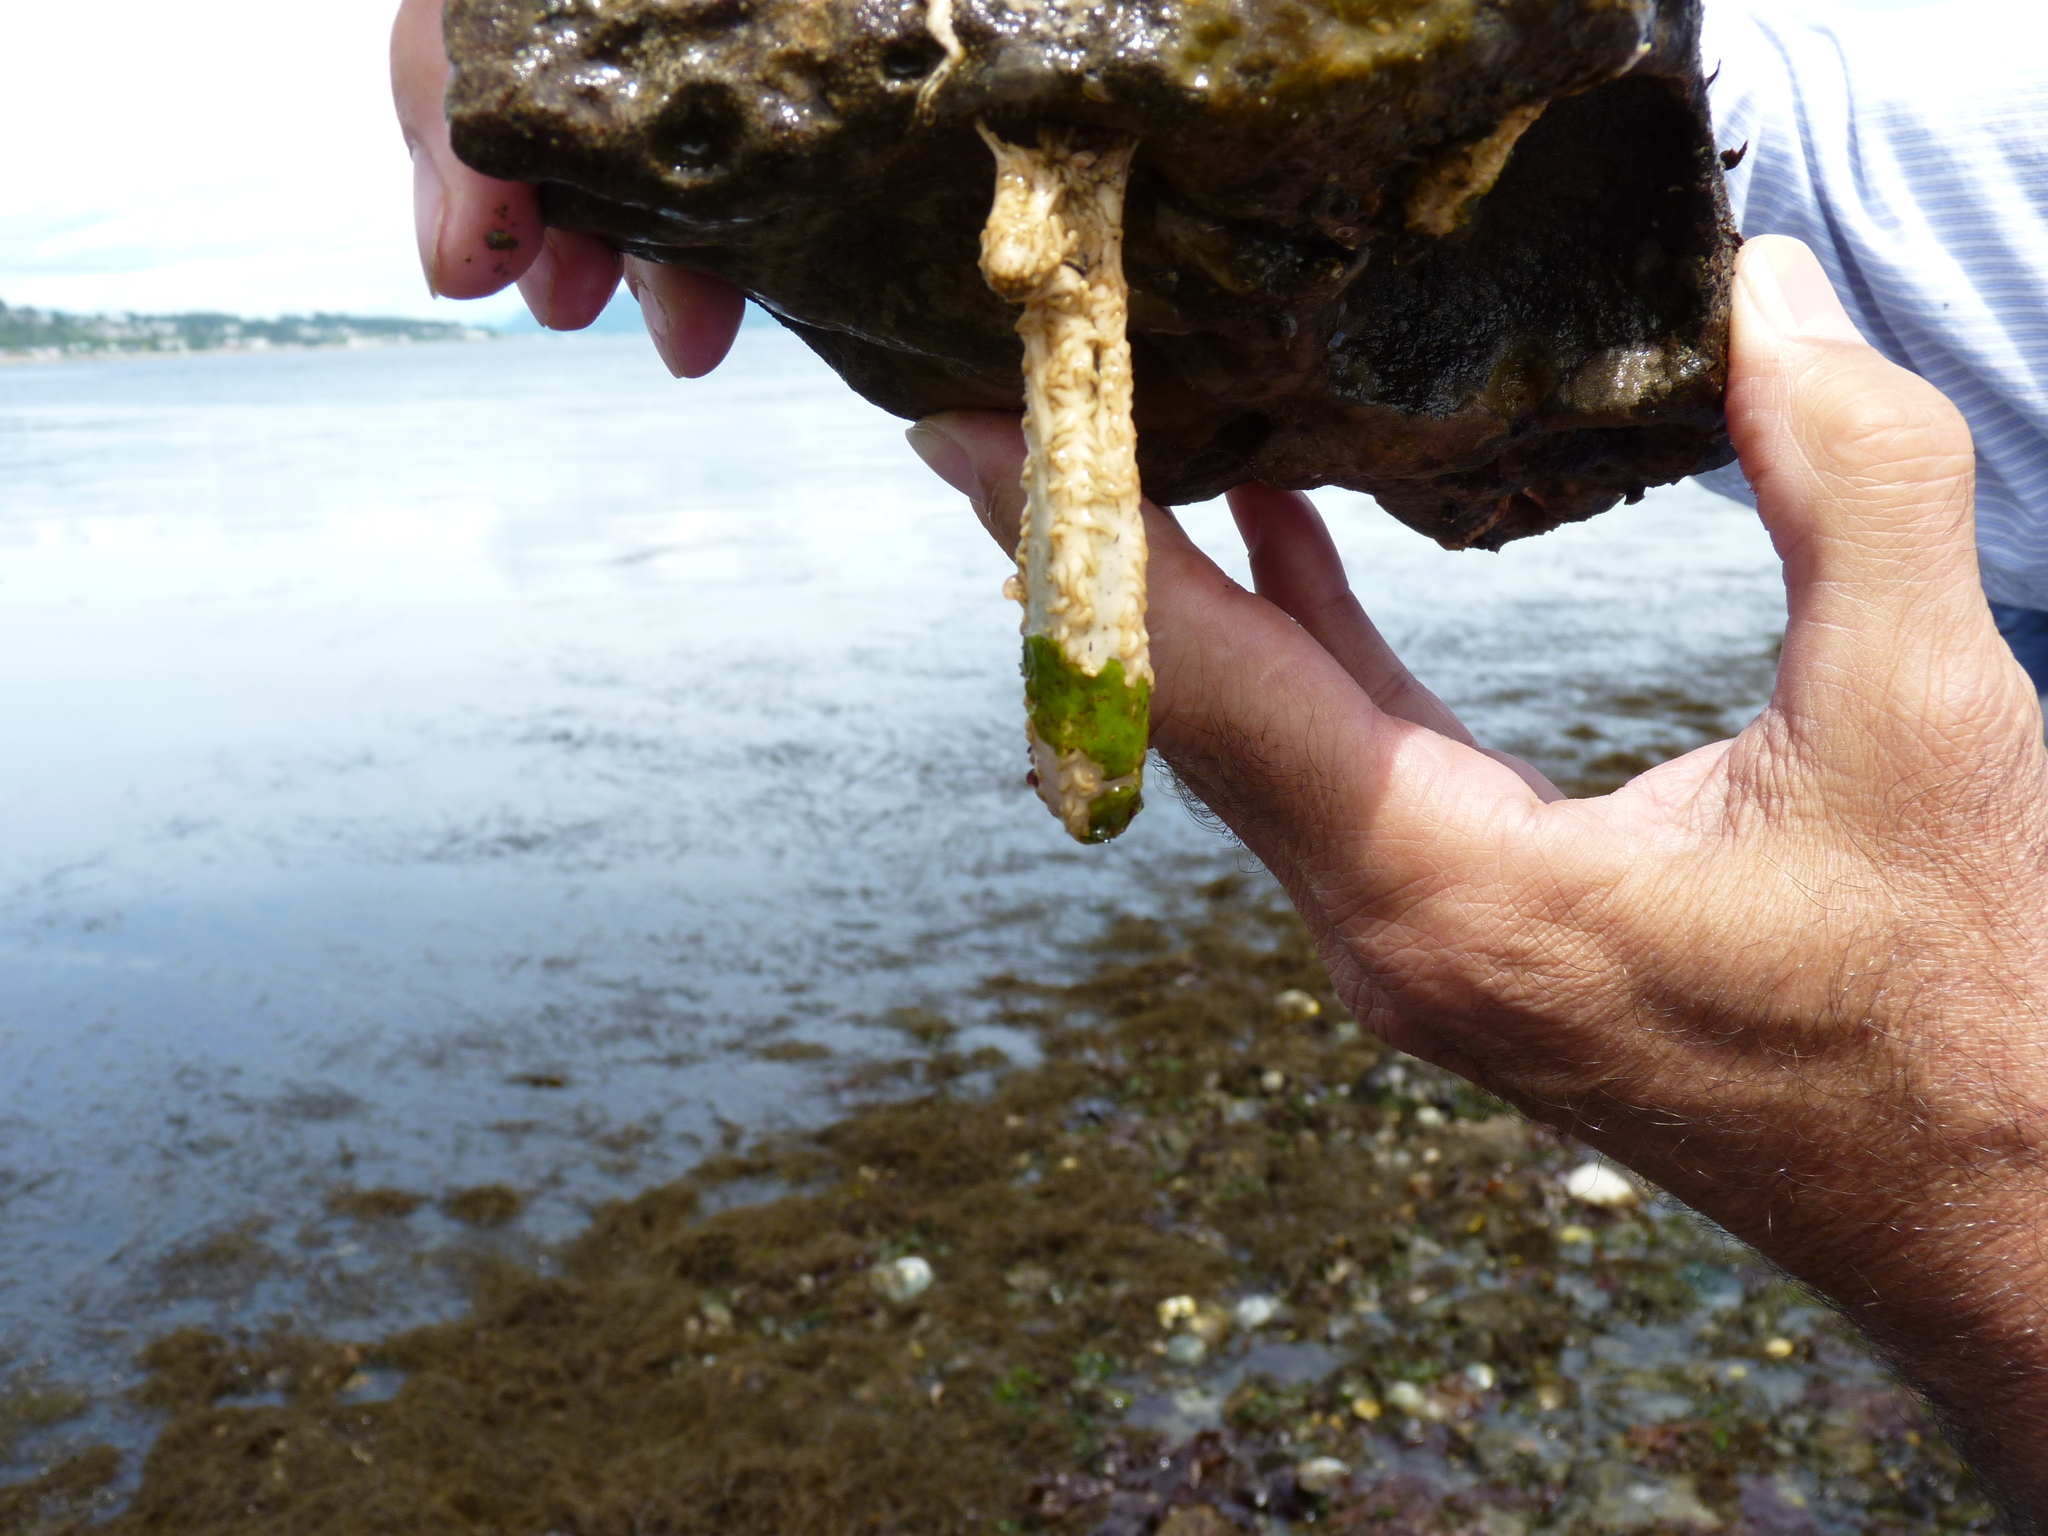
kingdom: Animalia
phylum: Echinodermata
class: Holothuroidea
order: Dendrochirotida
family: Sclerodactylidae
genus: Eupentacta
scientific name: Eupentacta quinquesemita
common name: Pentamerous sea cucumber
